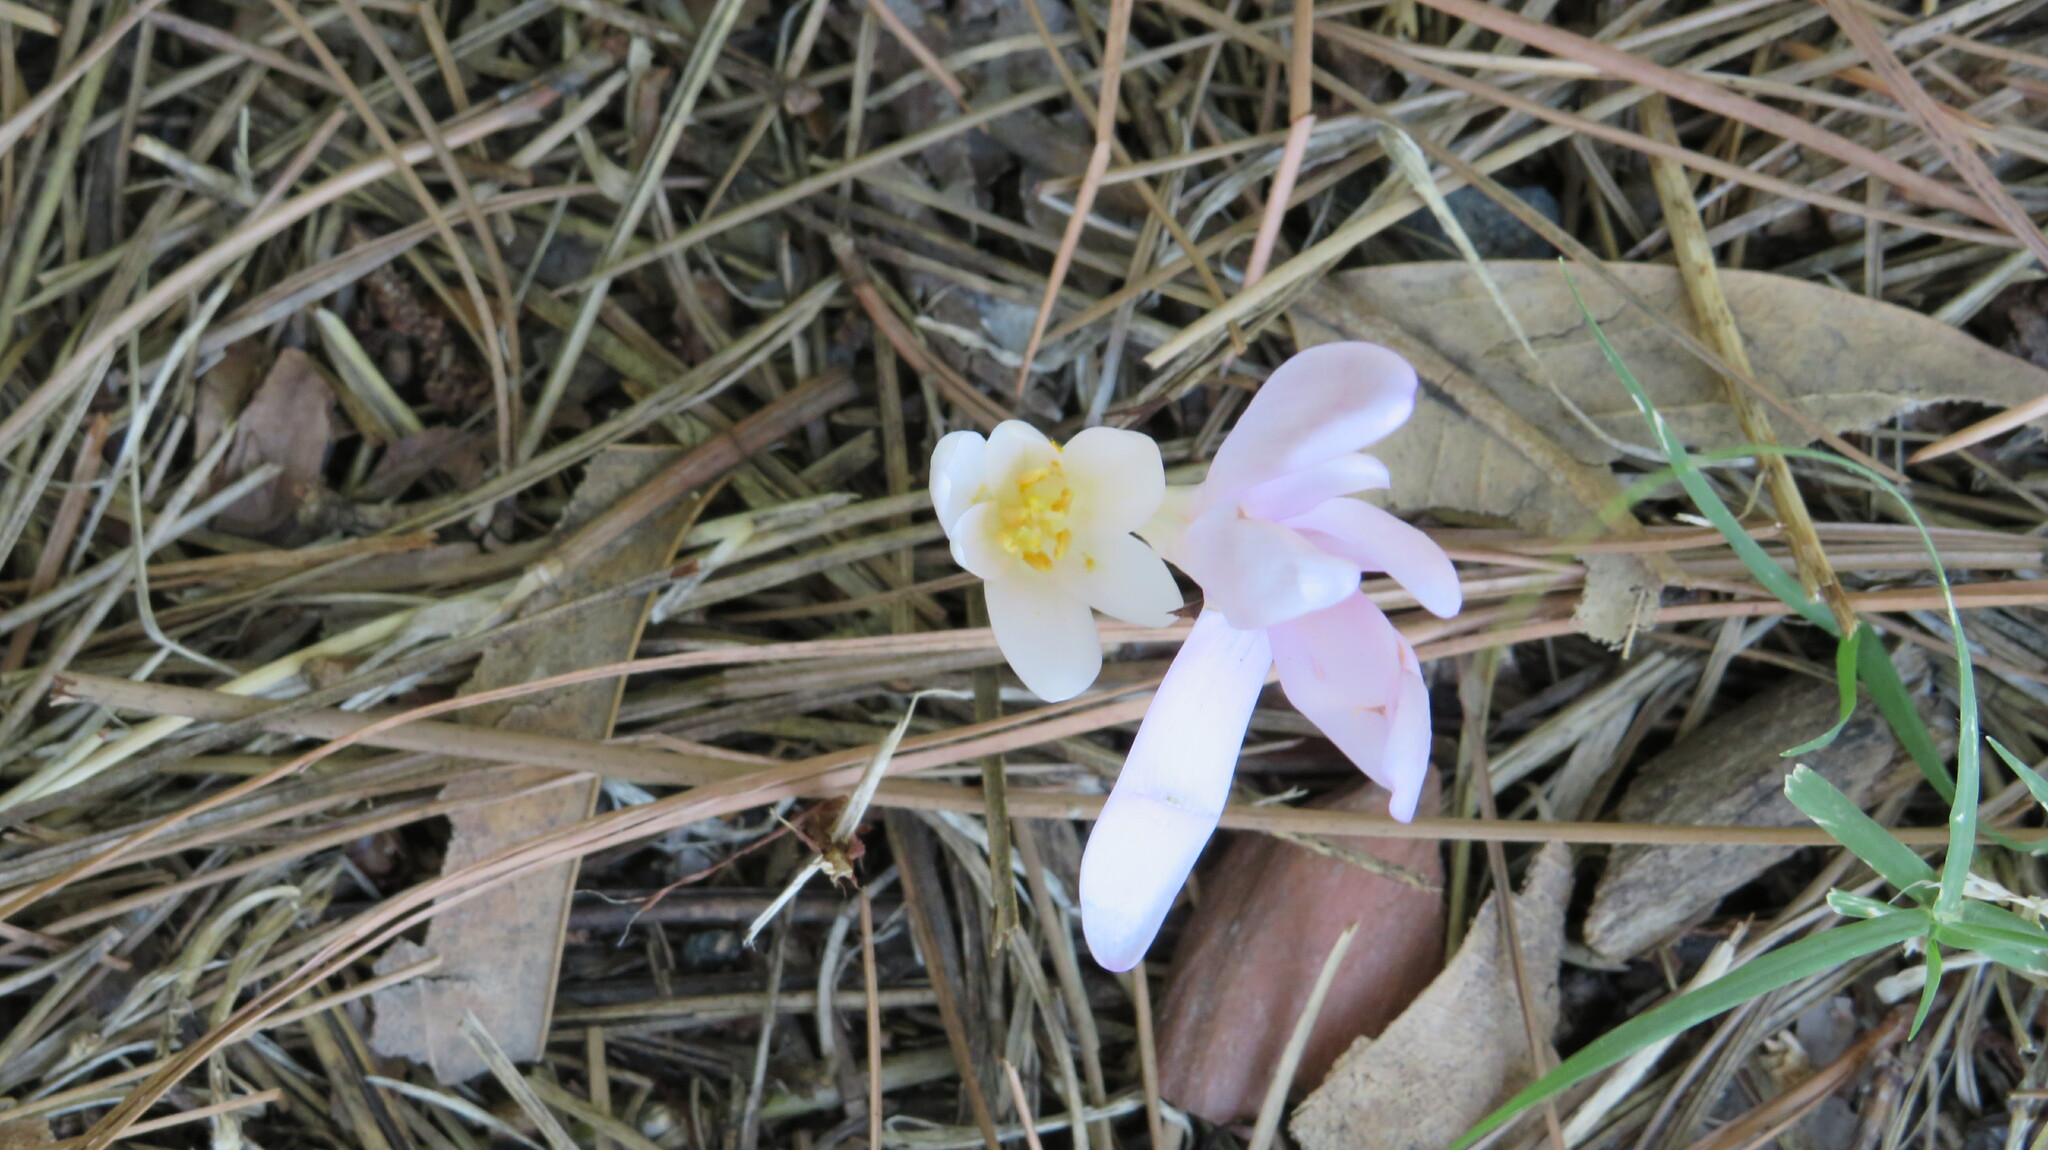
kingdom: Plantae
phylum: Tracheophyta
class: Liliopsida
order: Liliales
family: Colchicaceae
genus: Colchicum
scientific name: Colchicum umbrosum
